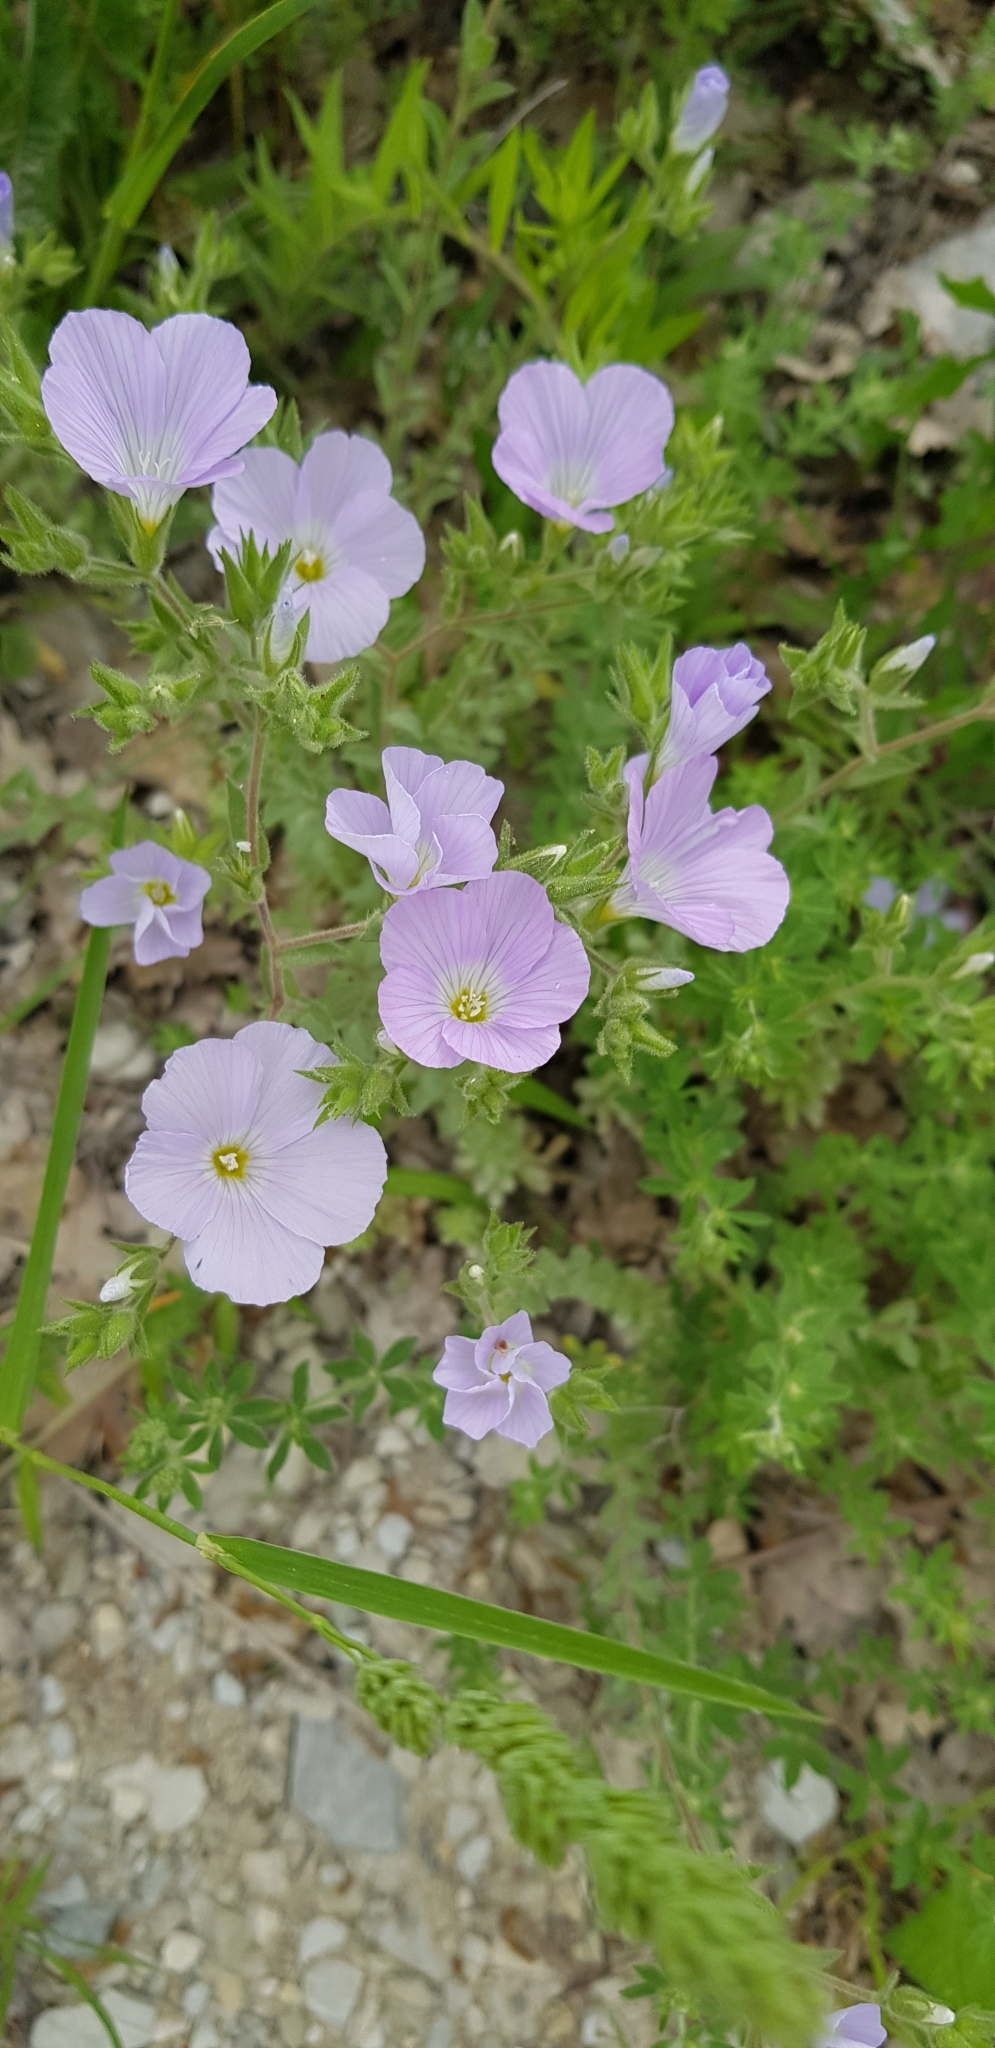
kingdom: Plantae
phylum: Tracheophyta
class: Magnoliopsida
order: Malpighiales
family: Linaceae
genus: Linum
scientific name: Linum hirsutum
